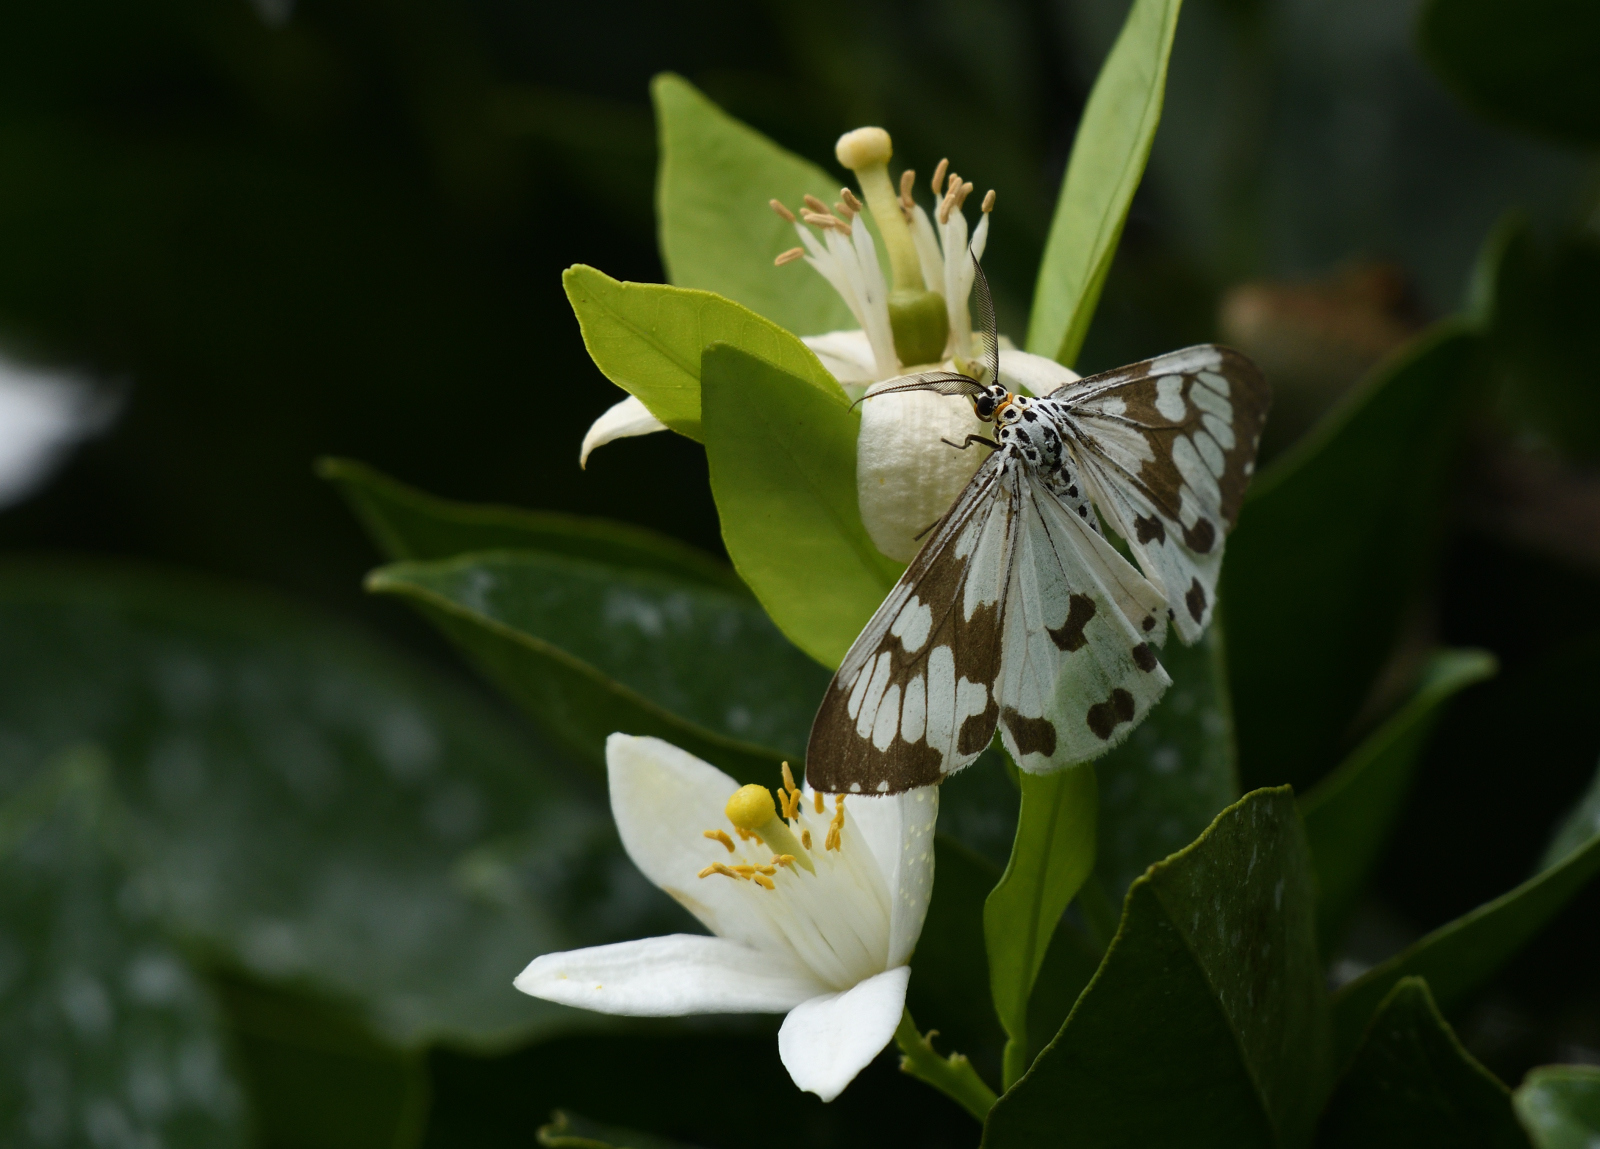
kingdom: Animalia
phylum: Arthropoda
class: Insecta
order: Lepidoptera
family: Erebidae
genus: Nyctemera
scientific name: Nyctemera adversata
